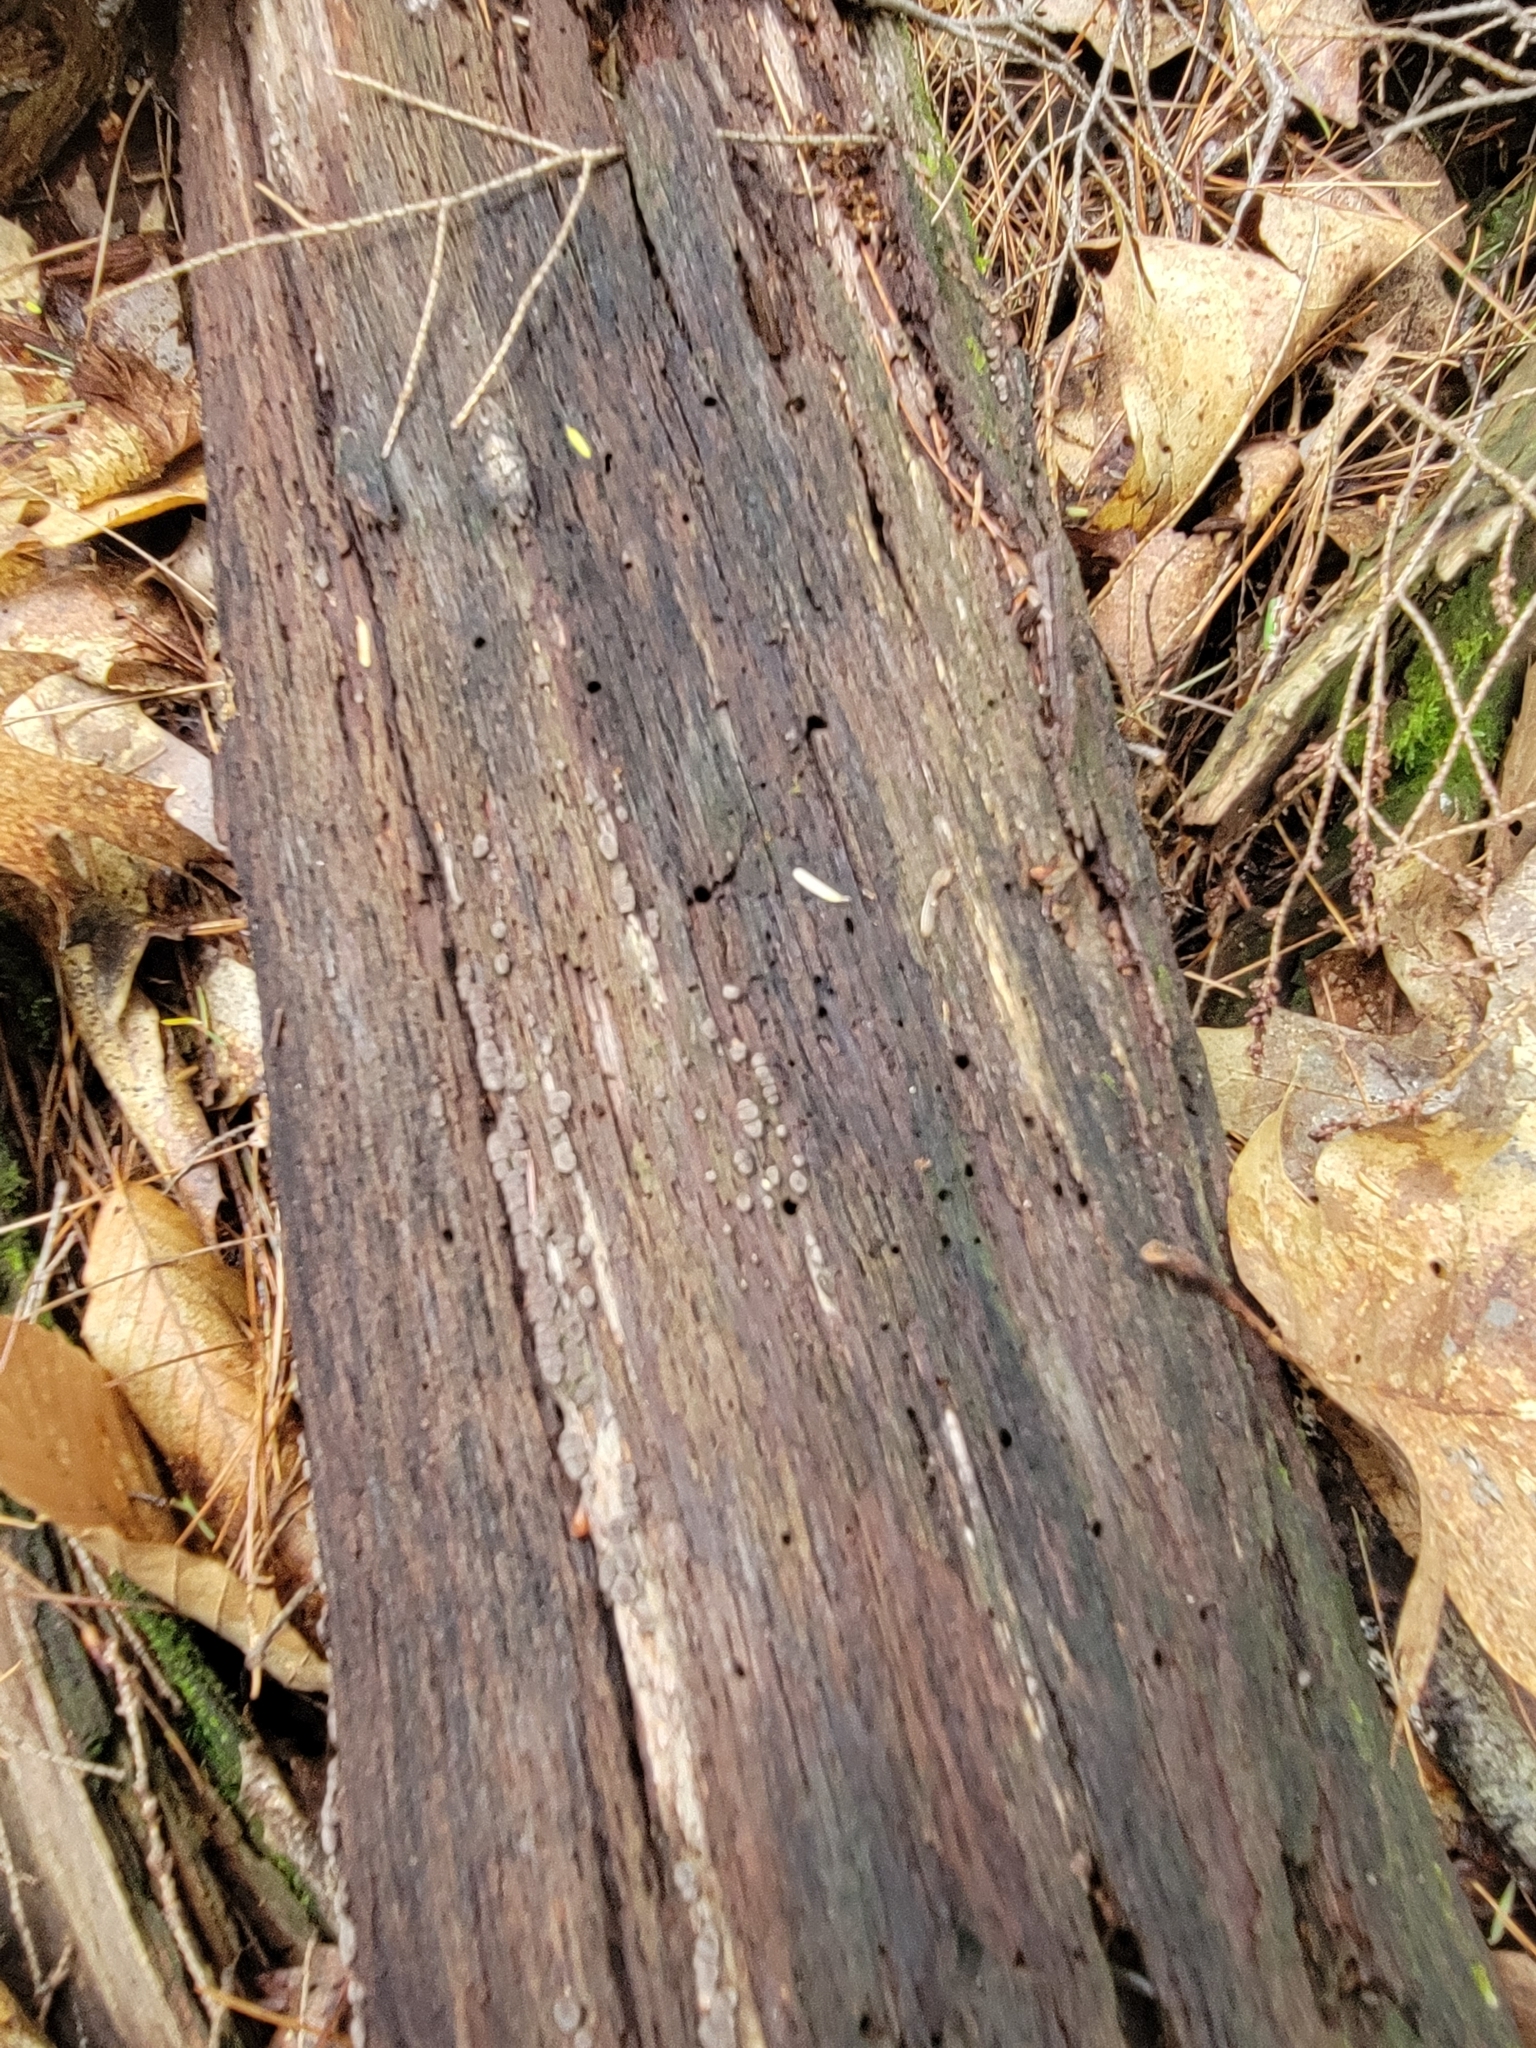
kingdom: Fungi
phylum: Basidiomycota
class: Agaricomycetes
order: Russulales
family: Stereaceae
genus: Xylobolus
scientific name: Xylobolus frustulatus
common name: Ceramic parchment
